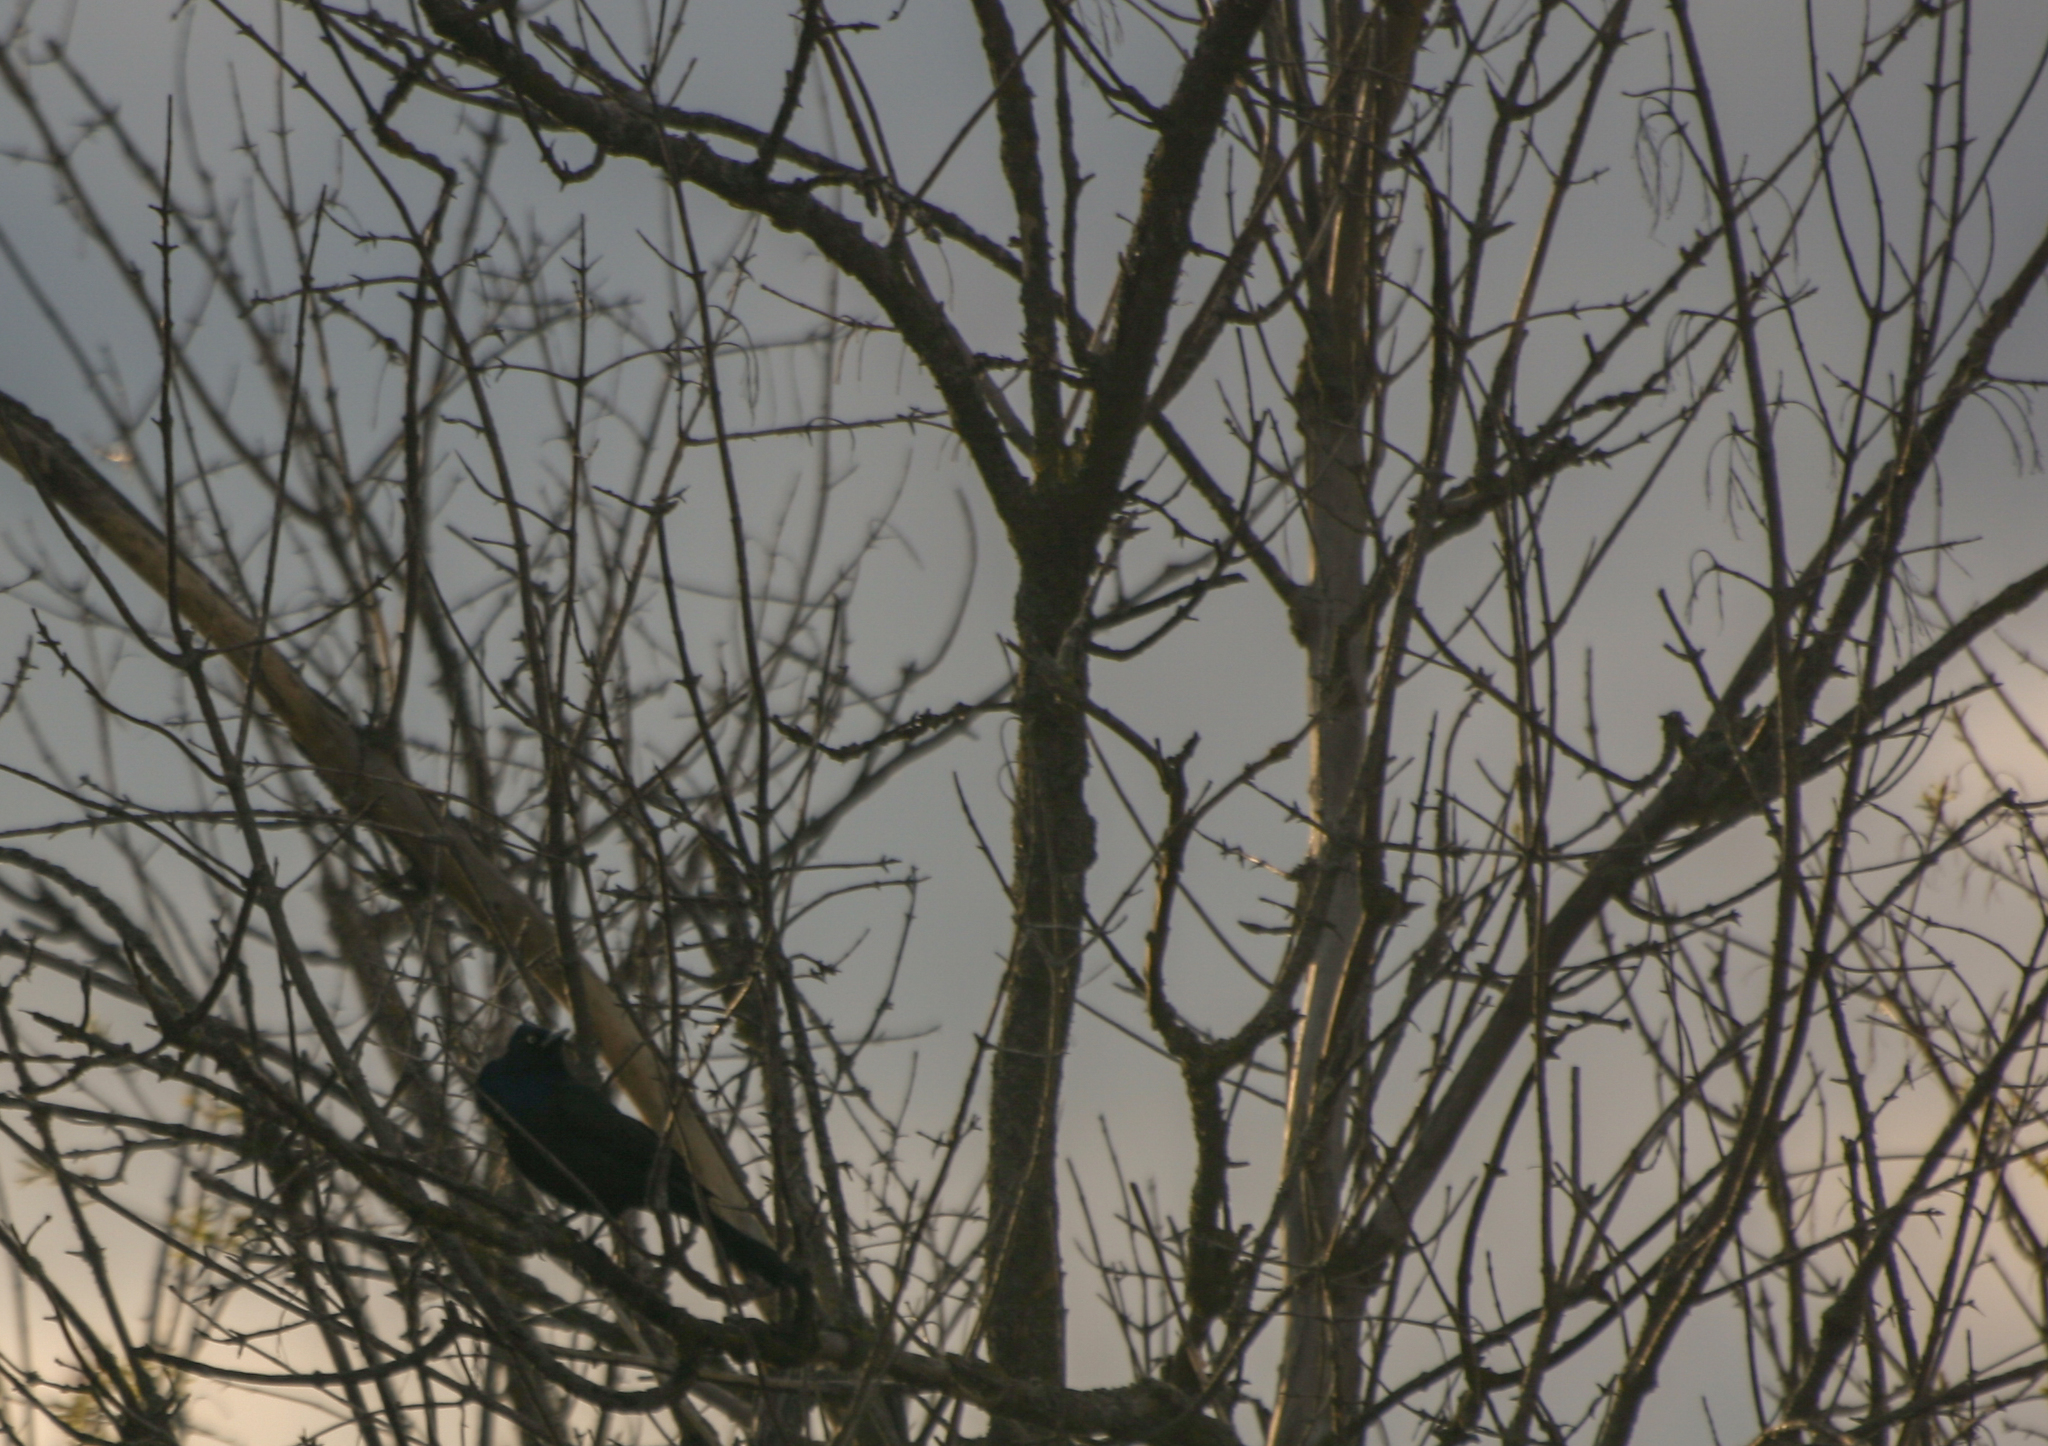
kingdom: Animalia
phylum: Chordata
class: Aves
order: Passeriformes
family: Icteridae
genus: Quiscalus
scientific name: Quiscalus quiscula
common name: Common grackle
